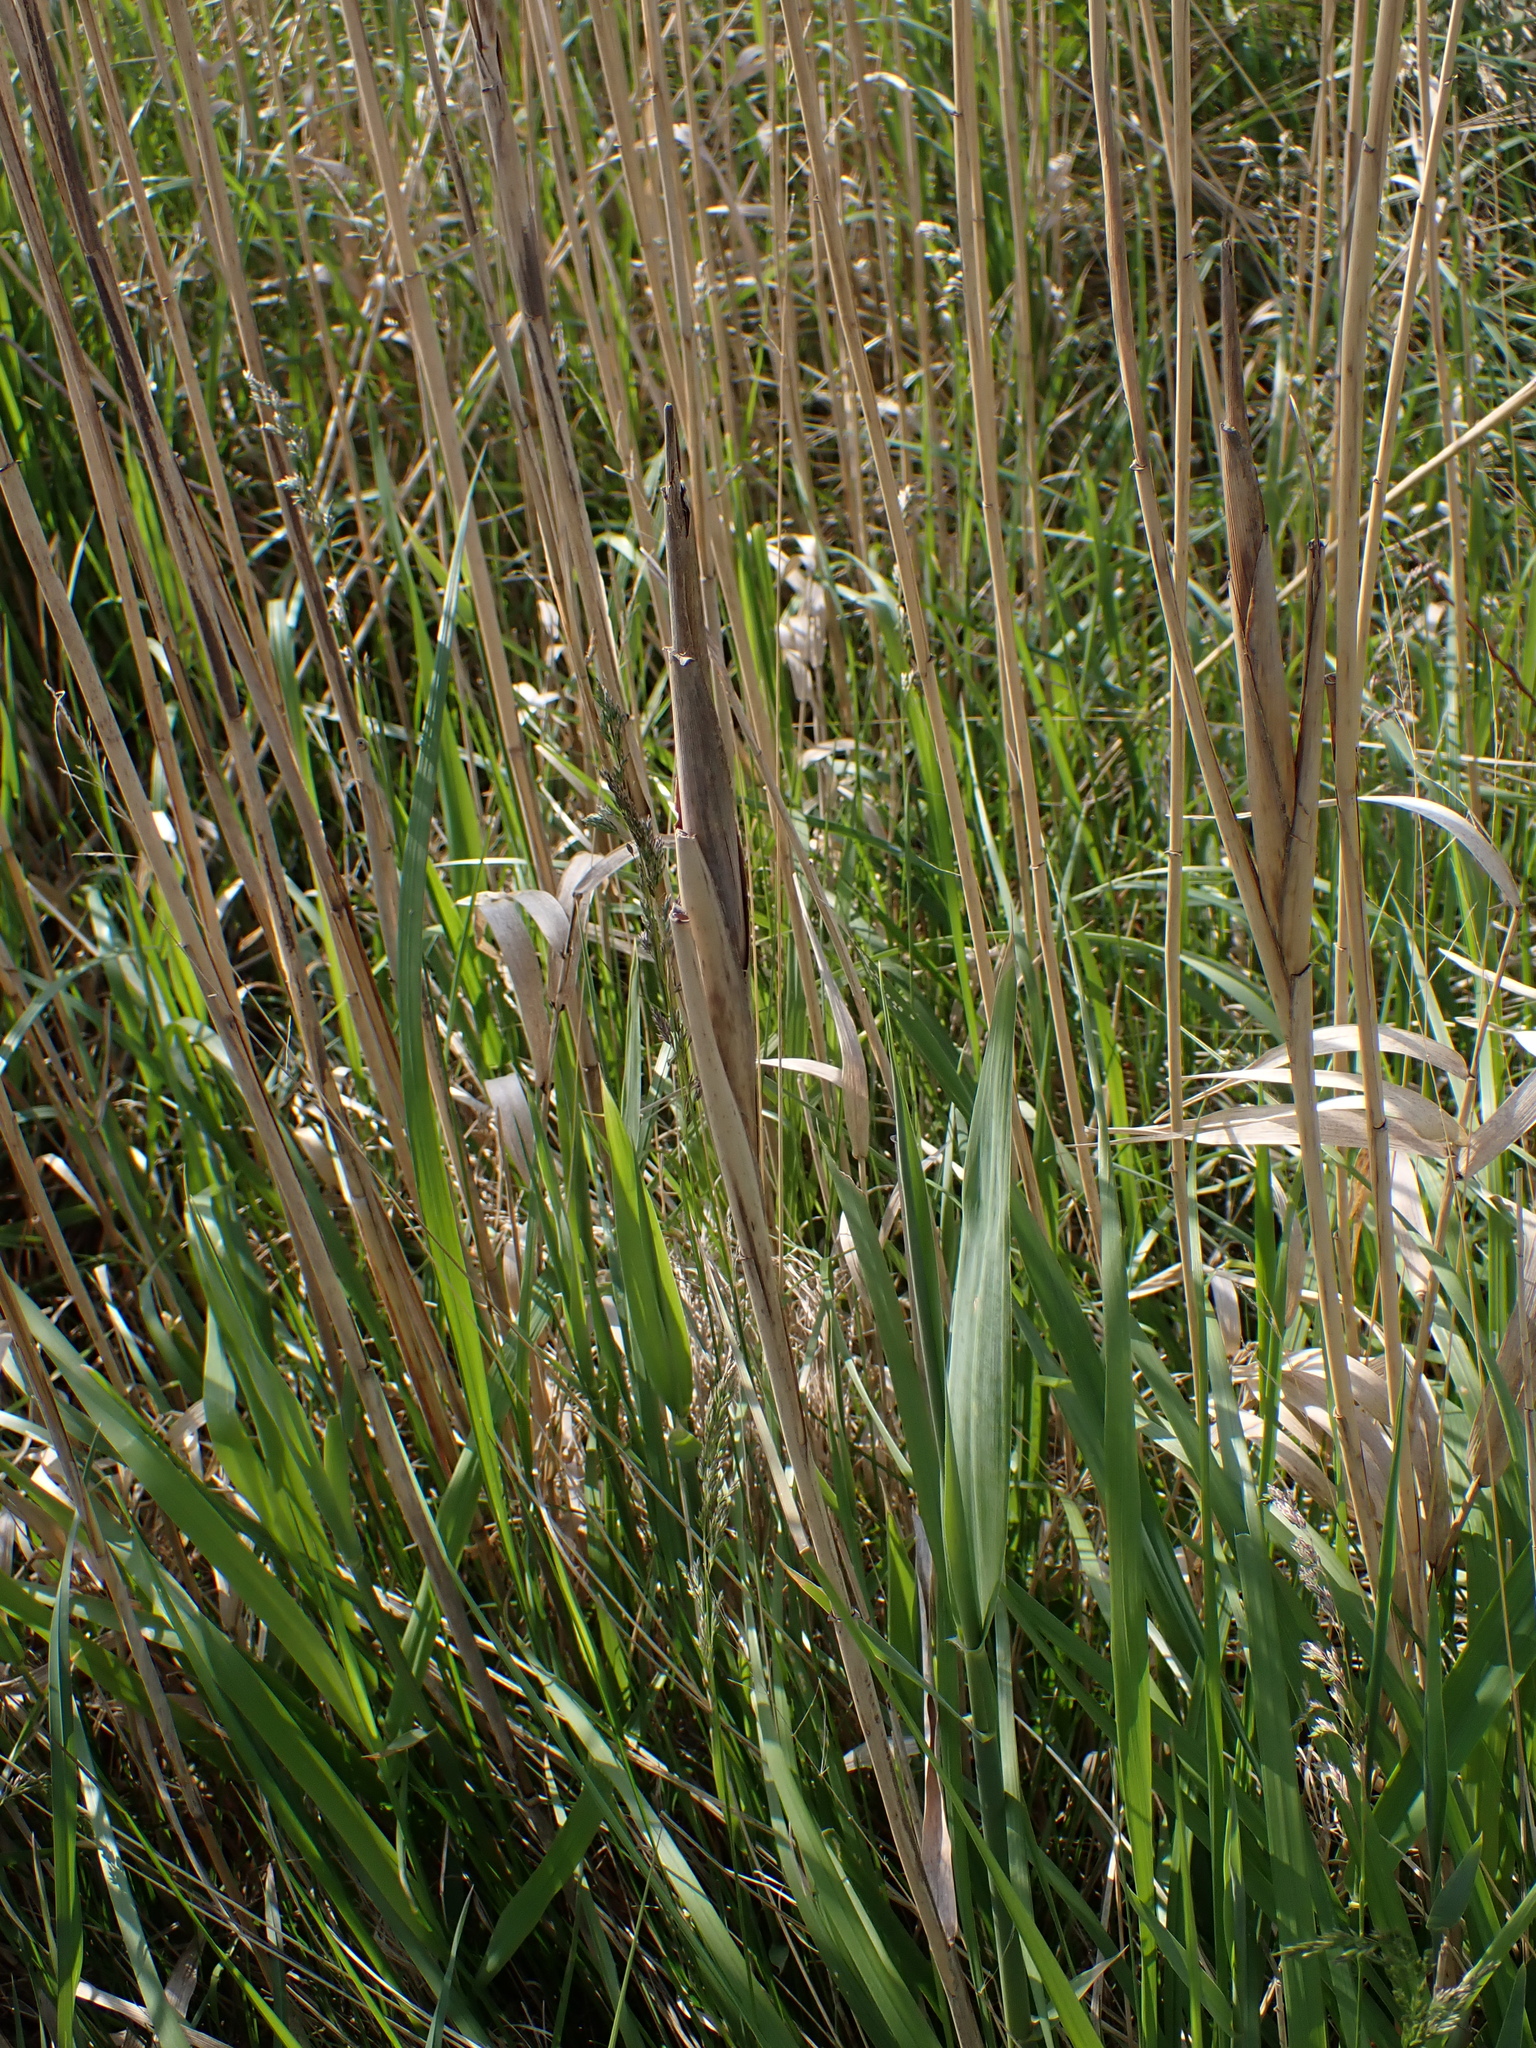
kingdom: Animalia
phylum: Arthropoda
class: Insecta
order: Diptera
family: Chloropidae
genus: Lipara
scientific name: Lipara lucens
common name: Frit fly
